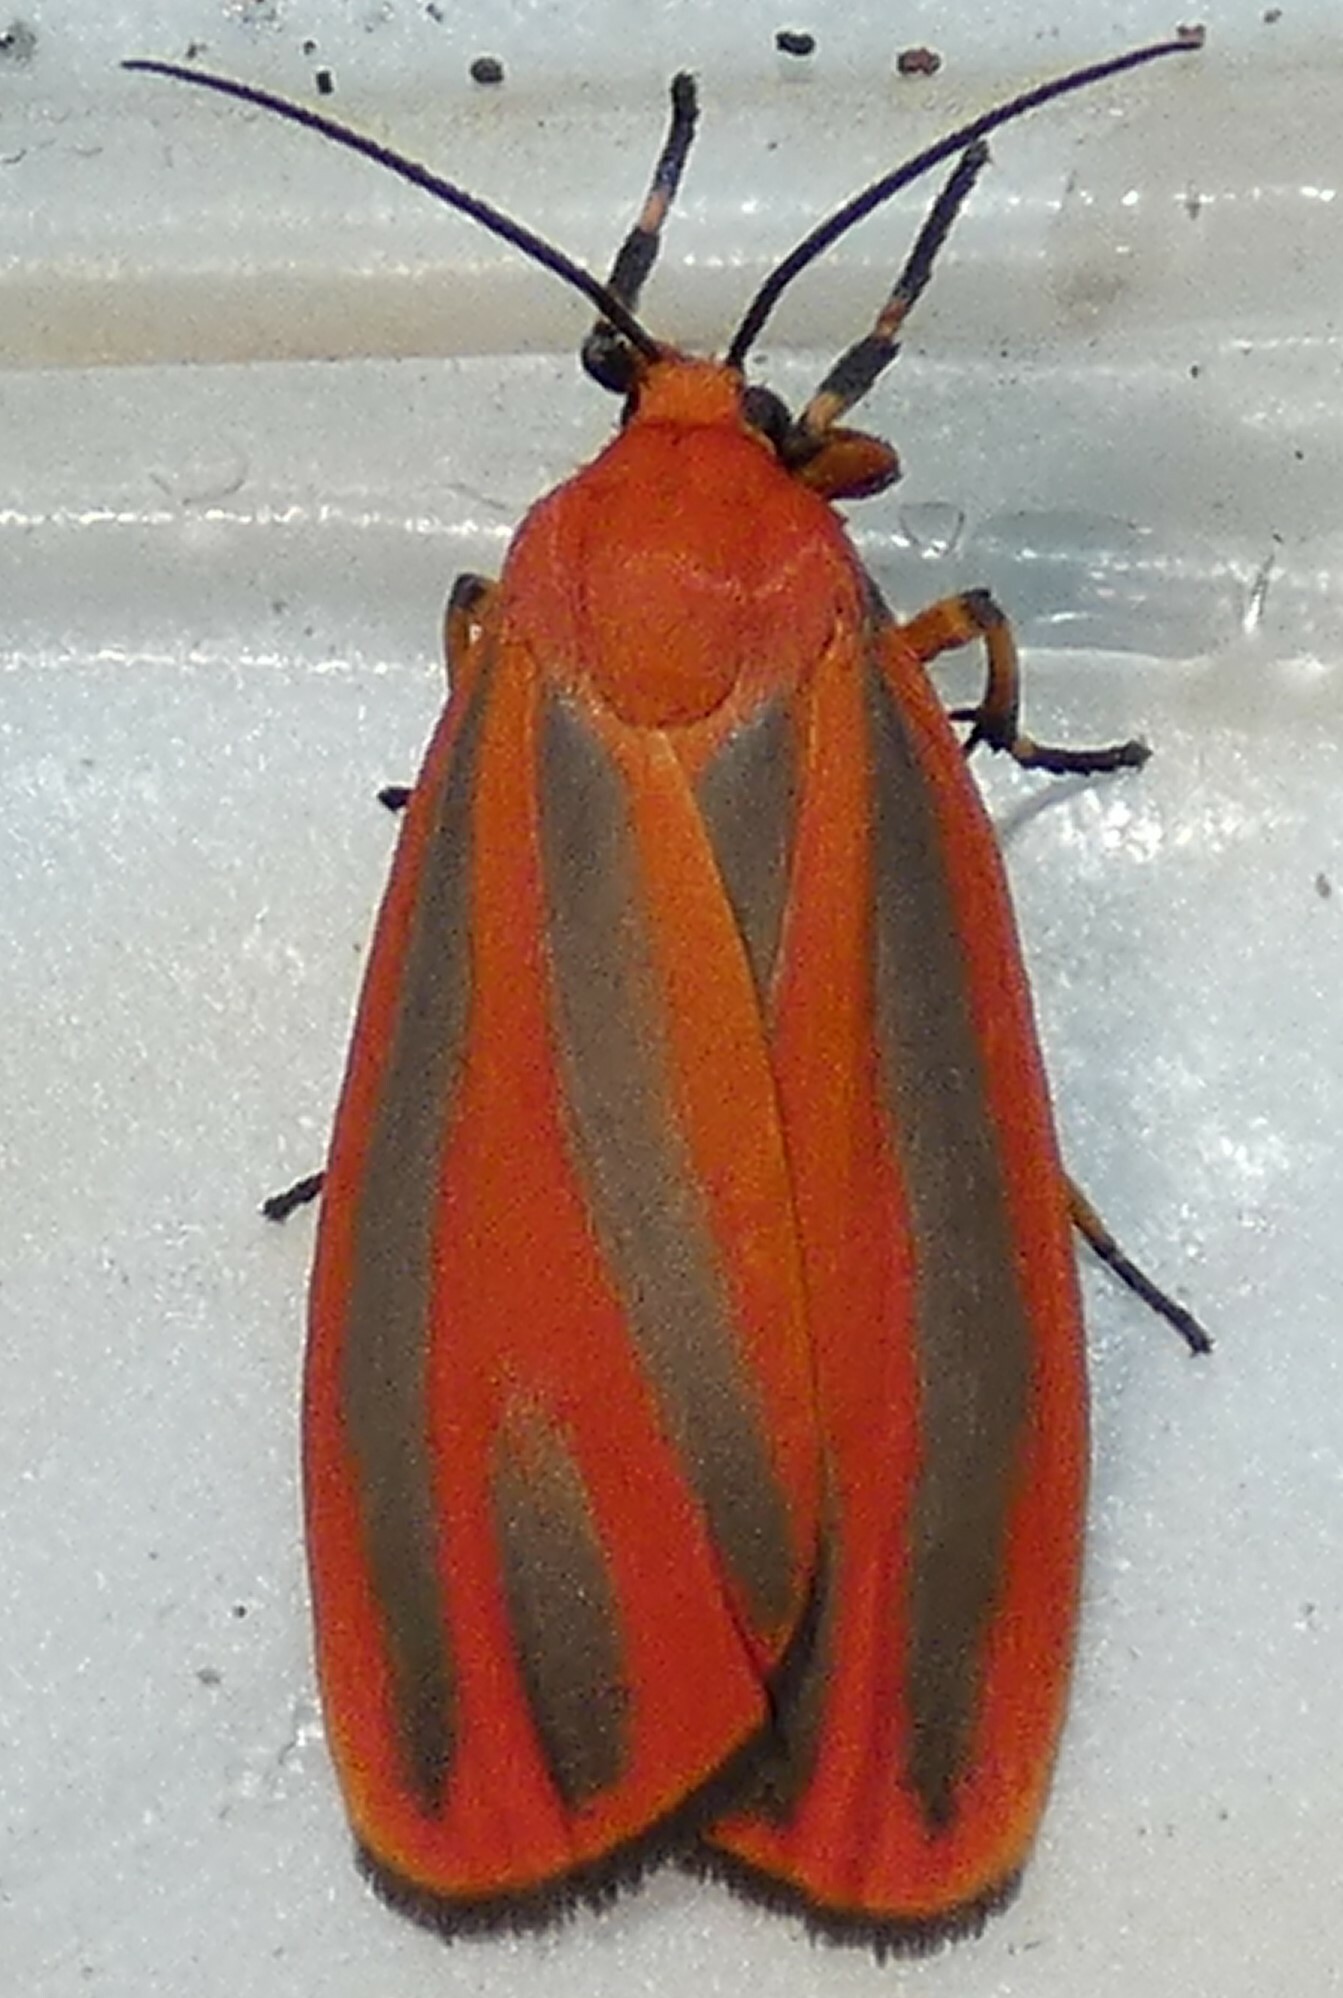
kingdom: Animalia
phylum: Arthropoda
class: Insecta
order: Lepidoptera
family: Erebidae
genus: Hypoprepia
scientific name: Hypoprepia miniata
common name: Scarlet-winged lichen moth
